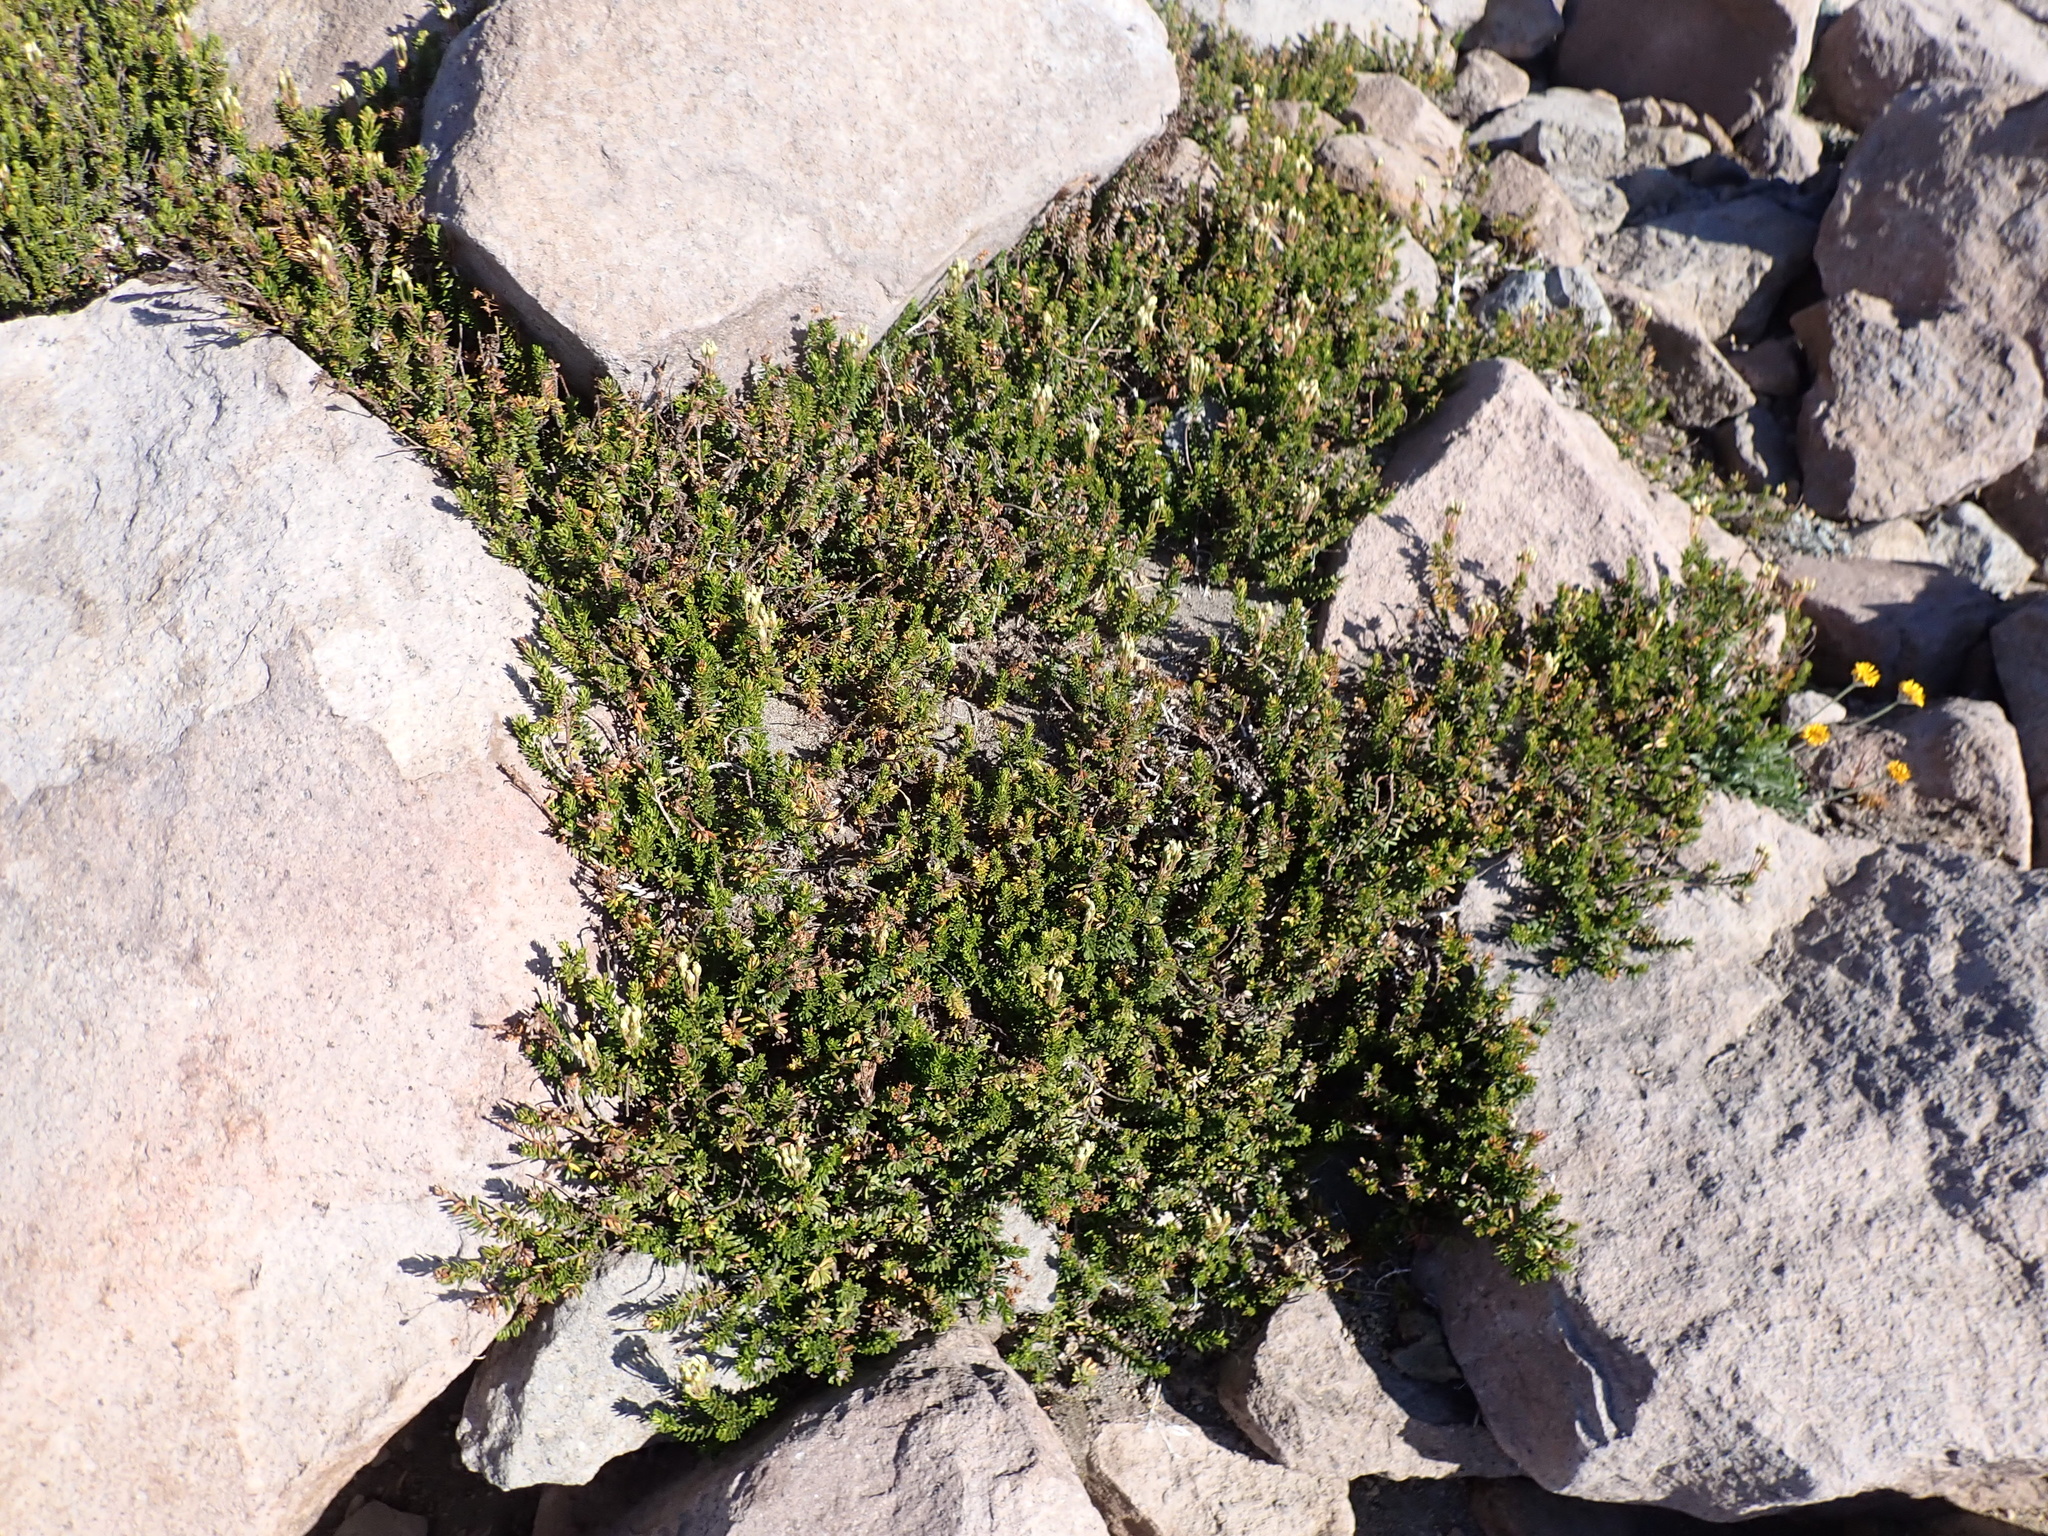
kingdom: Plantae
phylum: Tracheophyta
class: Magnoliopsida
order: Ericales
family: Ericaceae
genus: Phyllodoce
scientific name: Phyllodoce glanduliflora
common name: Cream mountain heather
